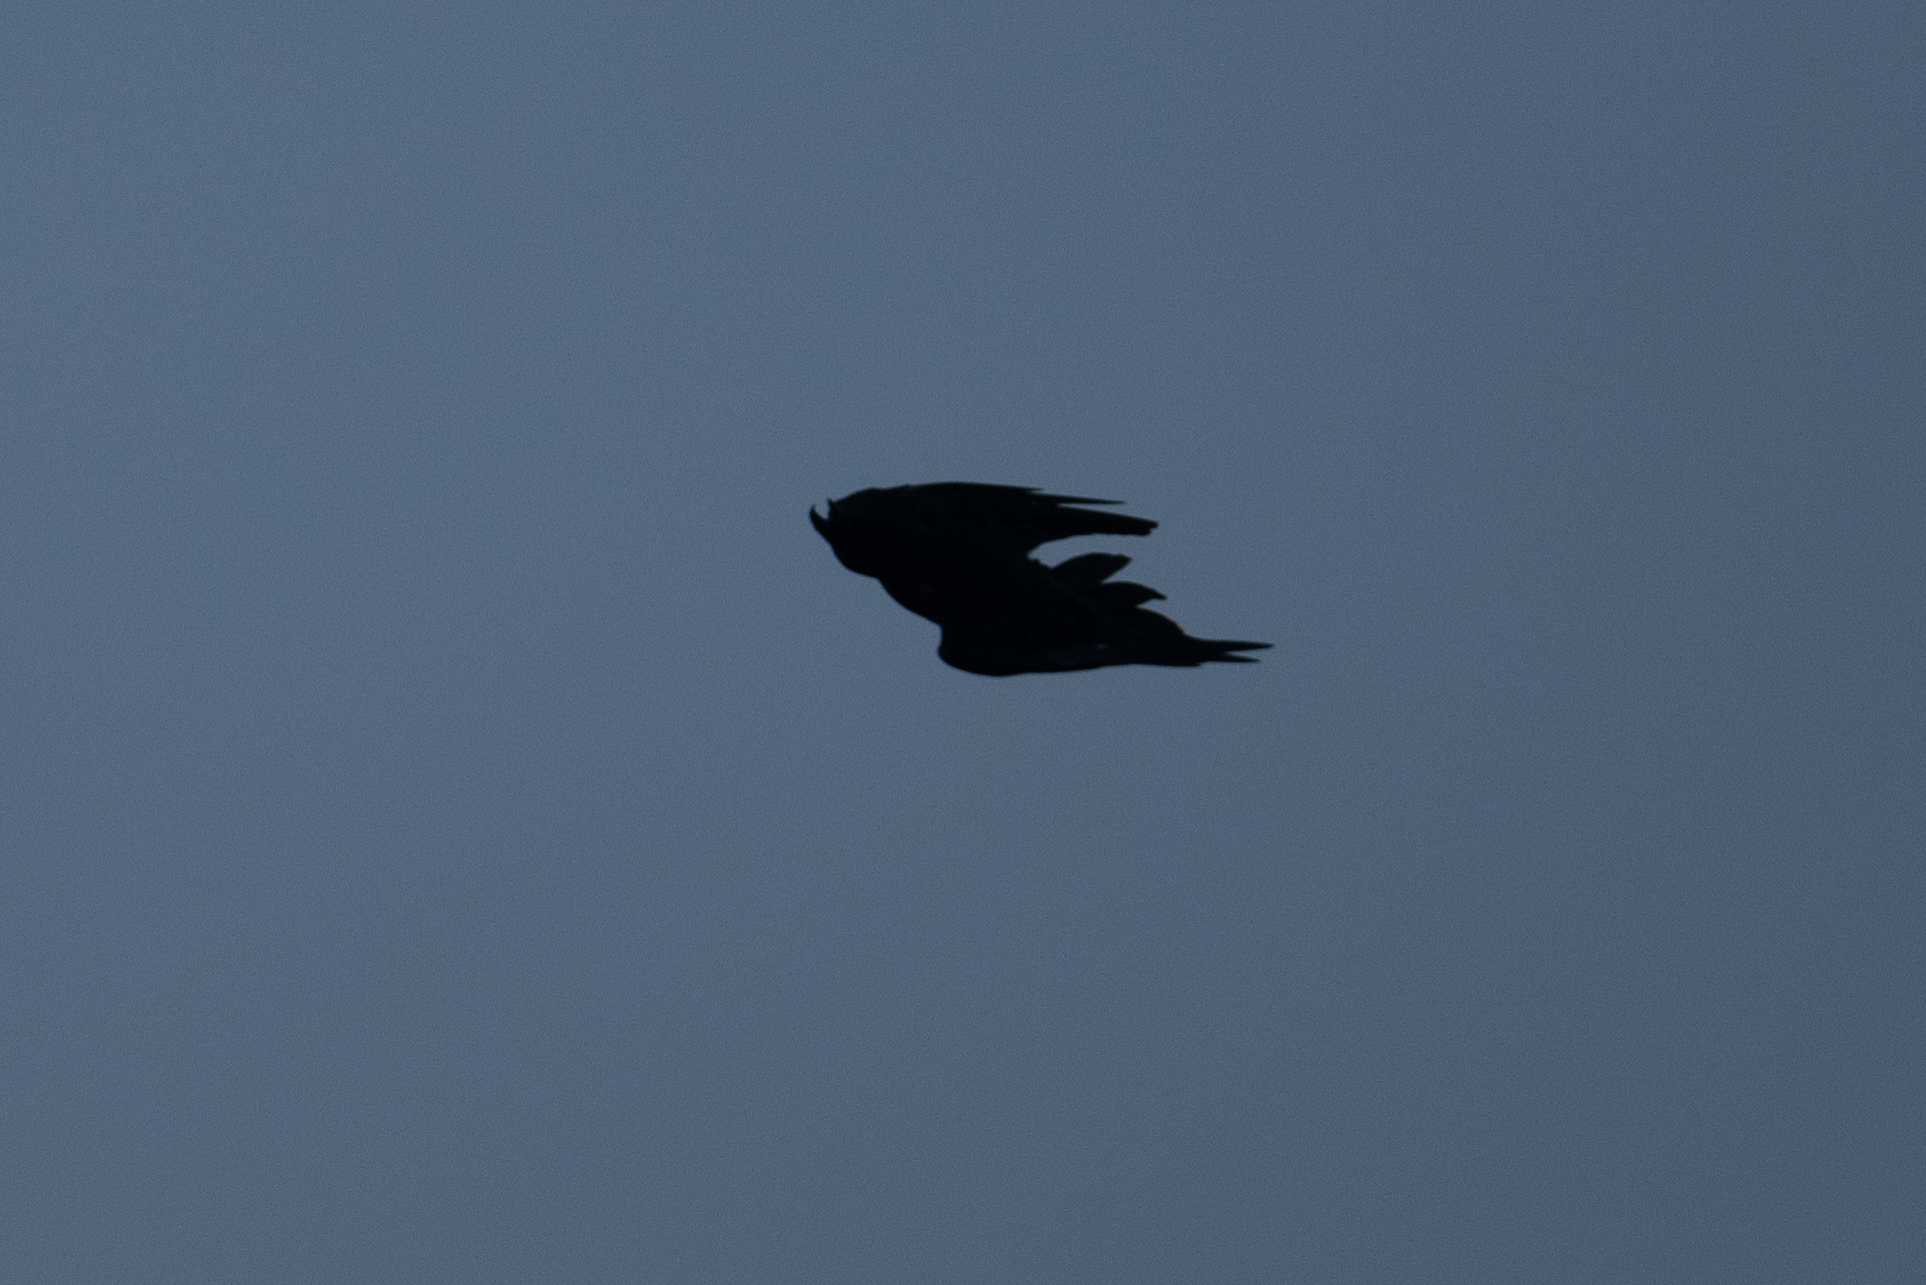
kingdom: Animalia
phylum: Chordata
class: Aves
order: Passeriformes
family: Corvidae
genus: Corvus
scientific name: Corvus corax
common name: Common raven
